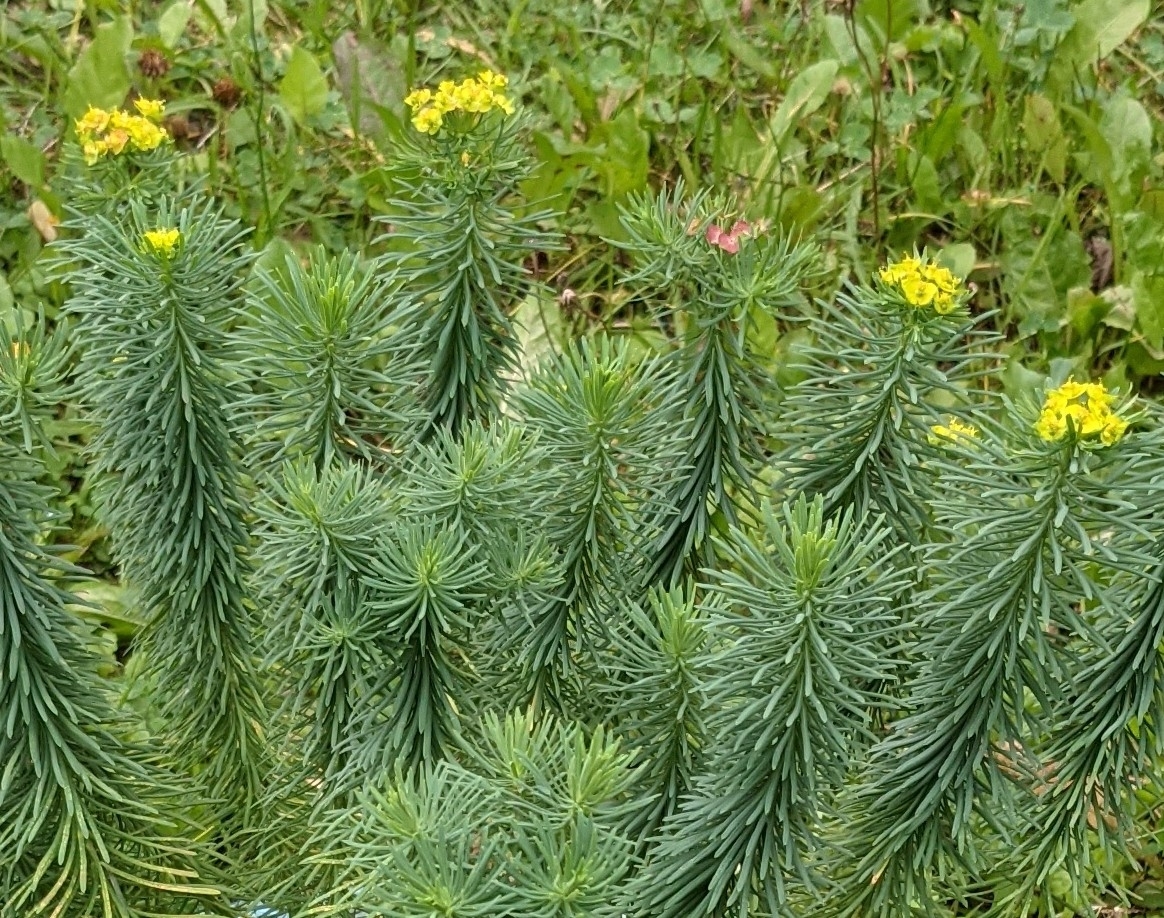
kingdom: Plantae
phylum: Tracheophyta
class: Magnoliopsida
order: Malpighiales
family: Euphorbiaceae
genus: Euphorbia
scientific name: Euphorbia cyparissias
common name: Cypress spurge
